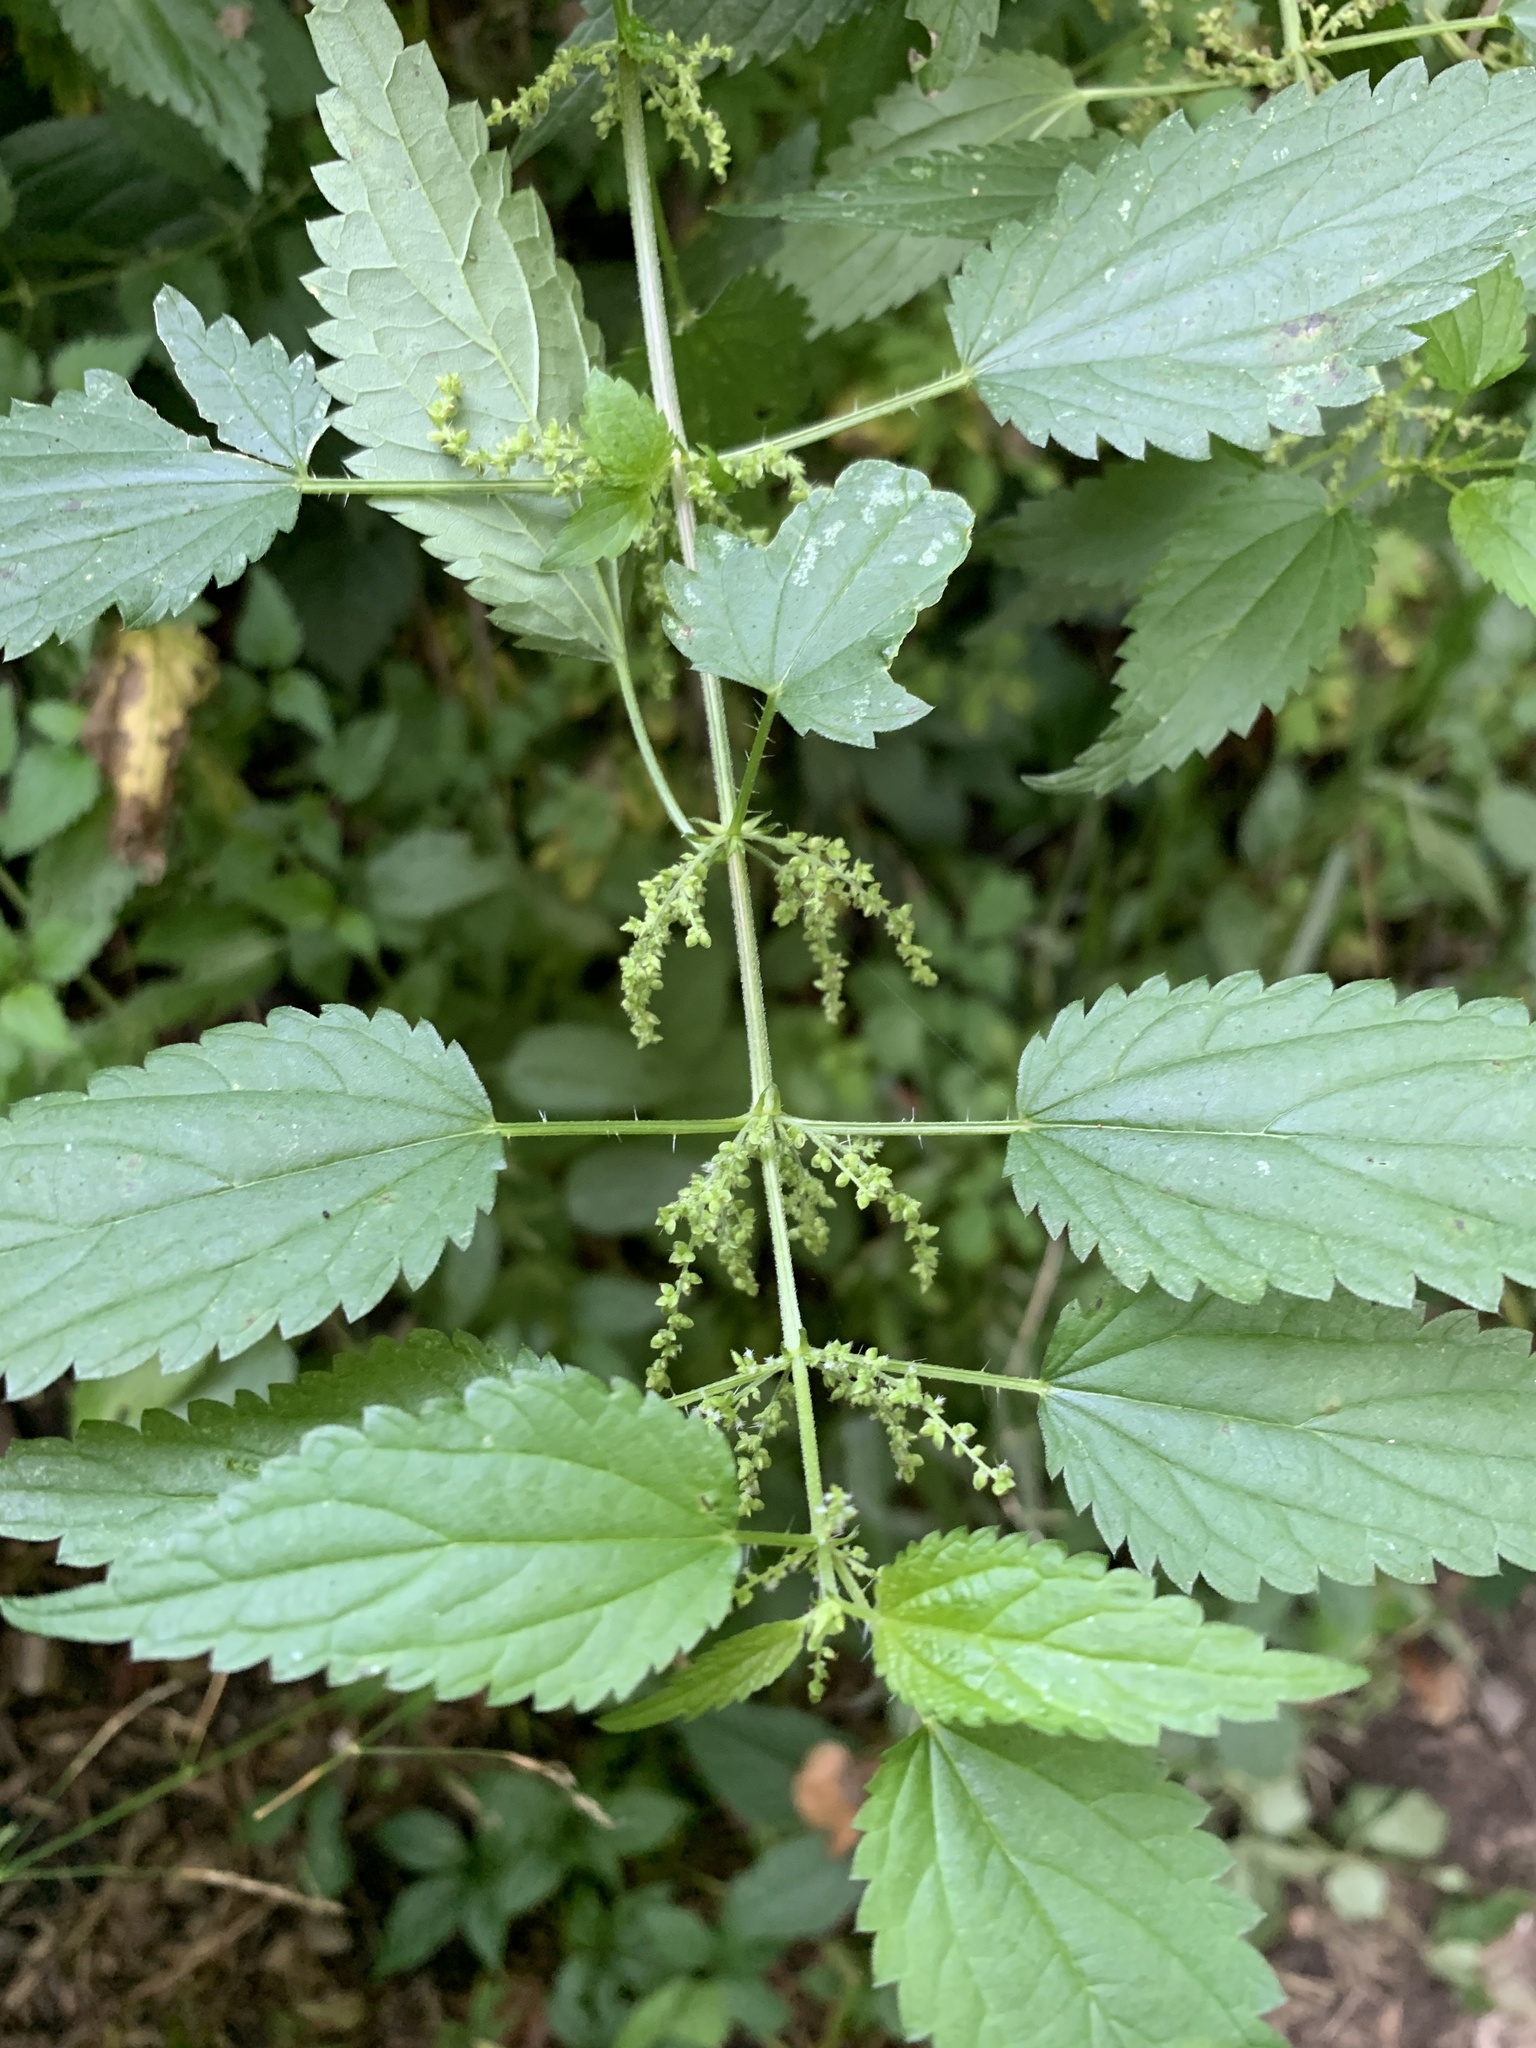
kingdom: Plantae
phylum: Tracheophyta
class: Magnoliopsida
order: Rosales
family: Urticaceae
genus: Urtica
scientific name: Urtica dioica
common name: Common nettle
